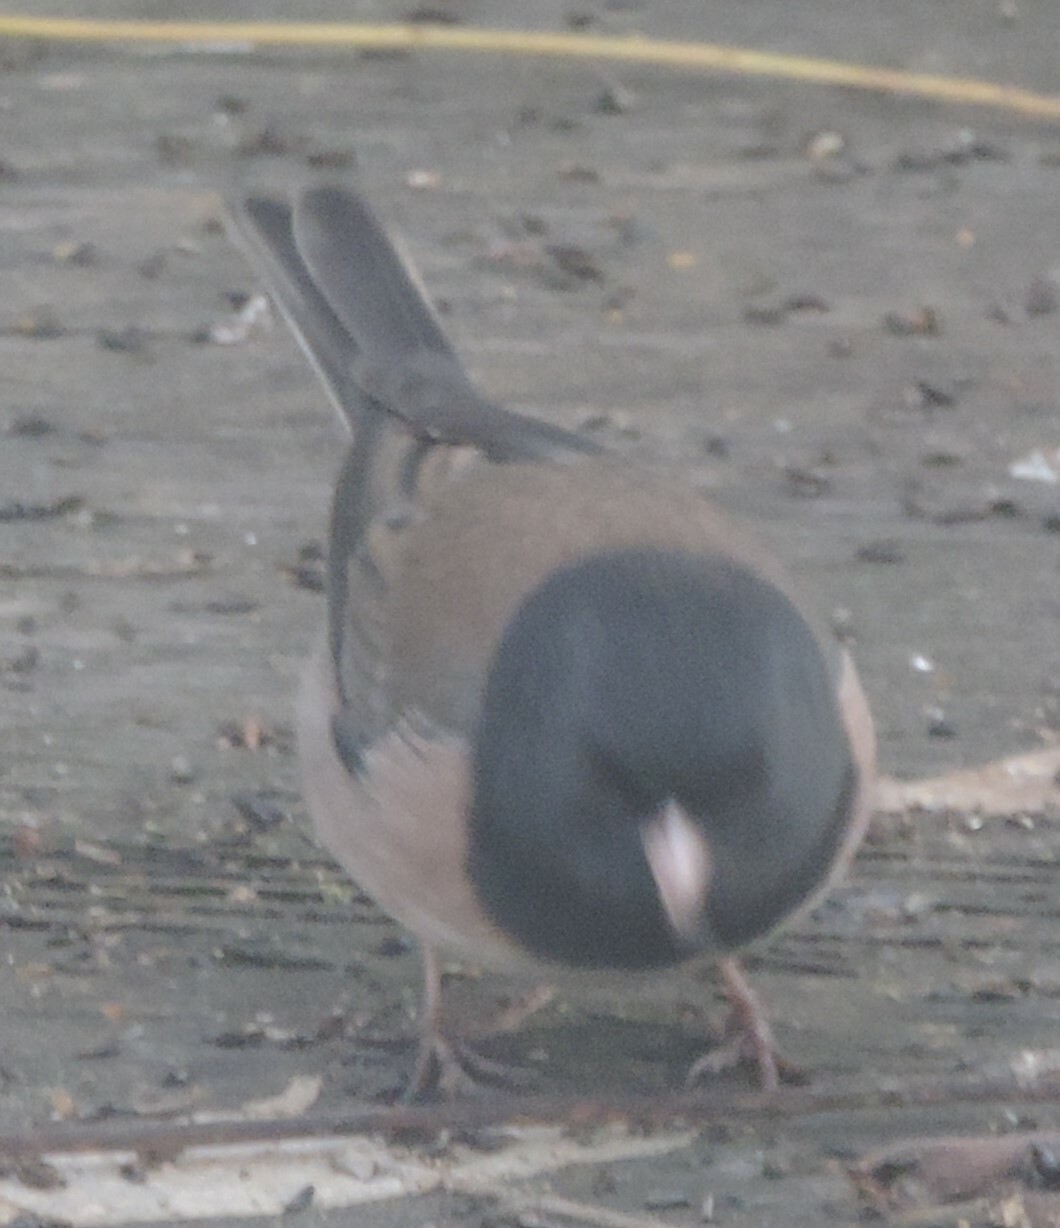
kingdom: Animalia
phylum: Chordata
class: Aves
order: Passeriformes
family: Passerellidae
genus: Junco
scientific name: Junco hyemalis
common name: Dark-eyed junco
